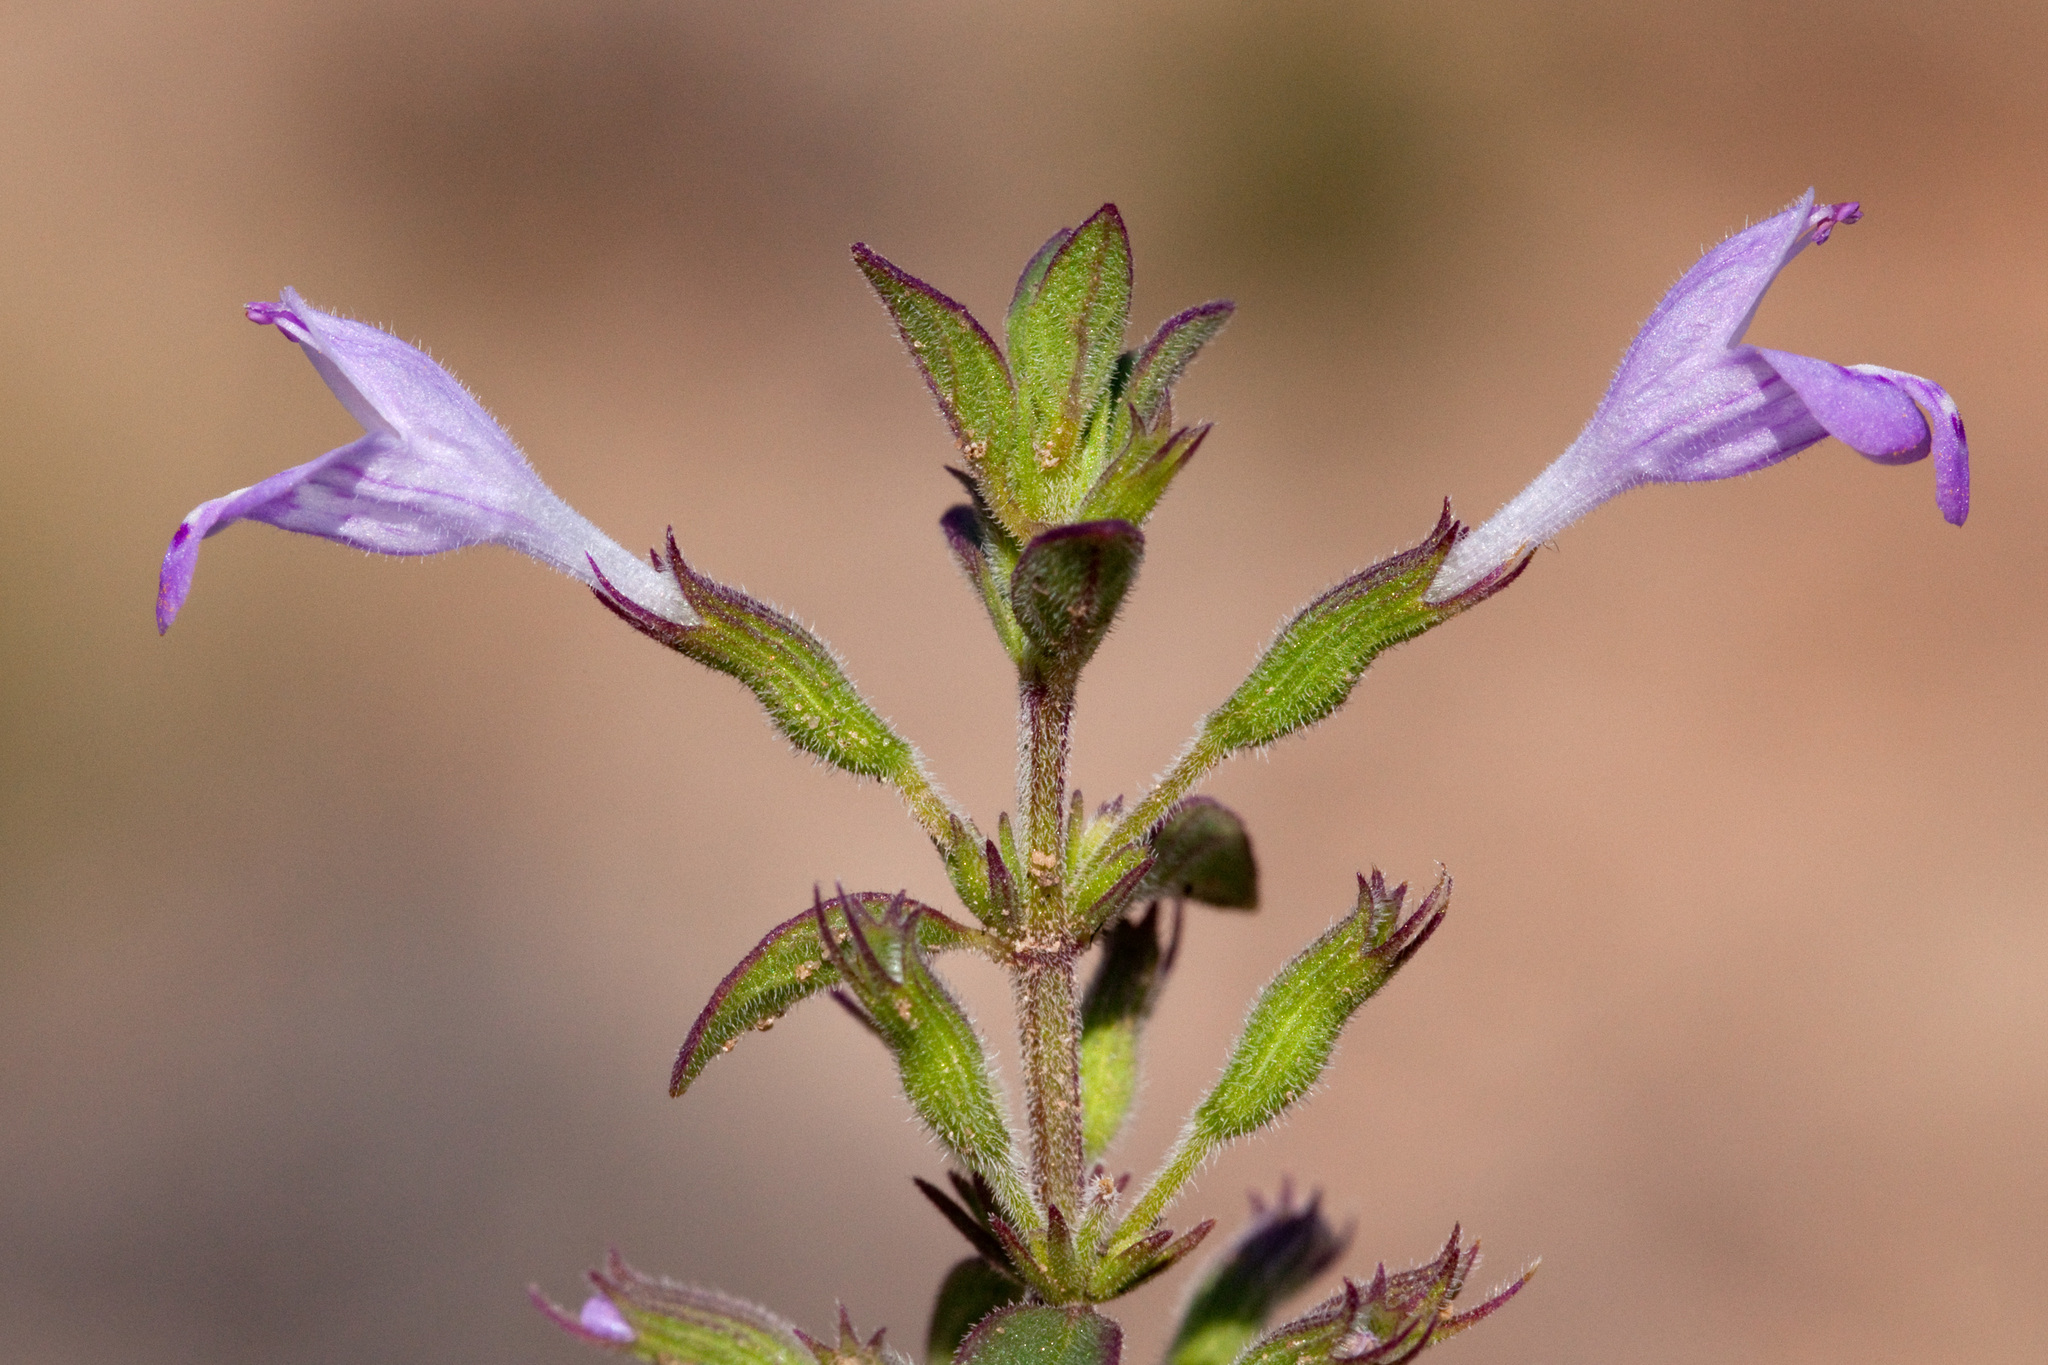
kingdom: Plantae
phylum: Tracheophyta
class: Magnoliopsida
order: Lamiales
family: Lamiaceae
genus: Hedeoma
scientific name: Hedeoma nana
